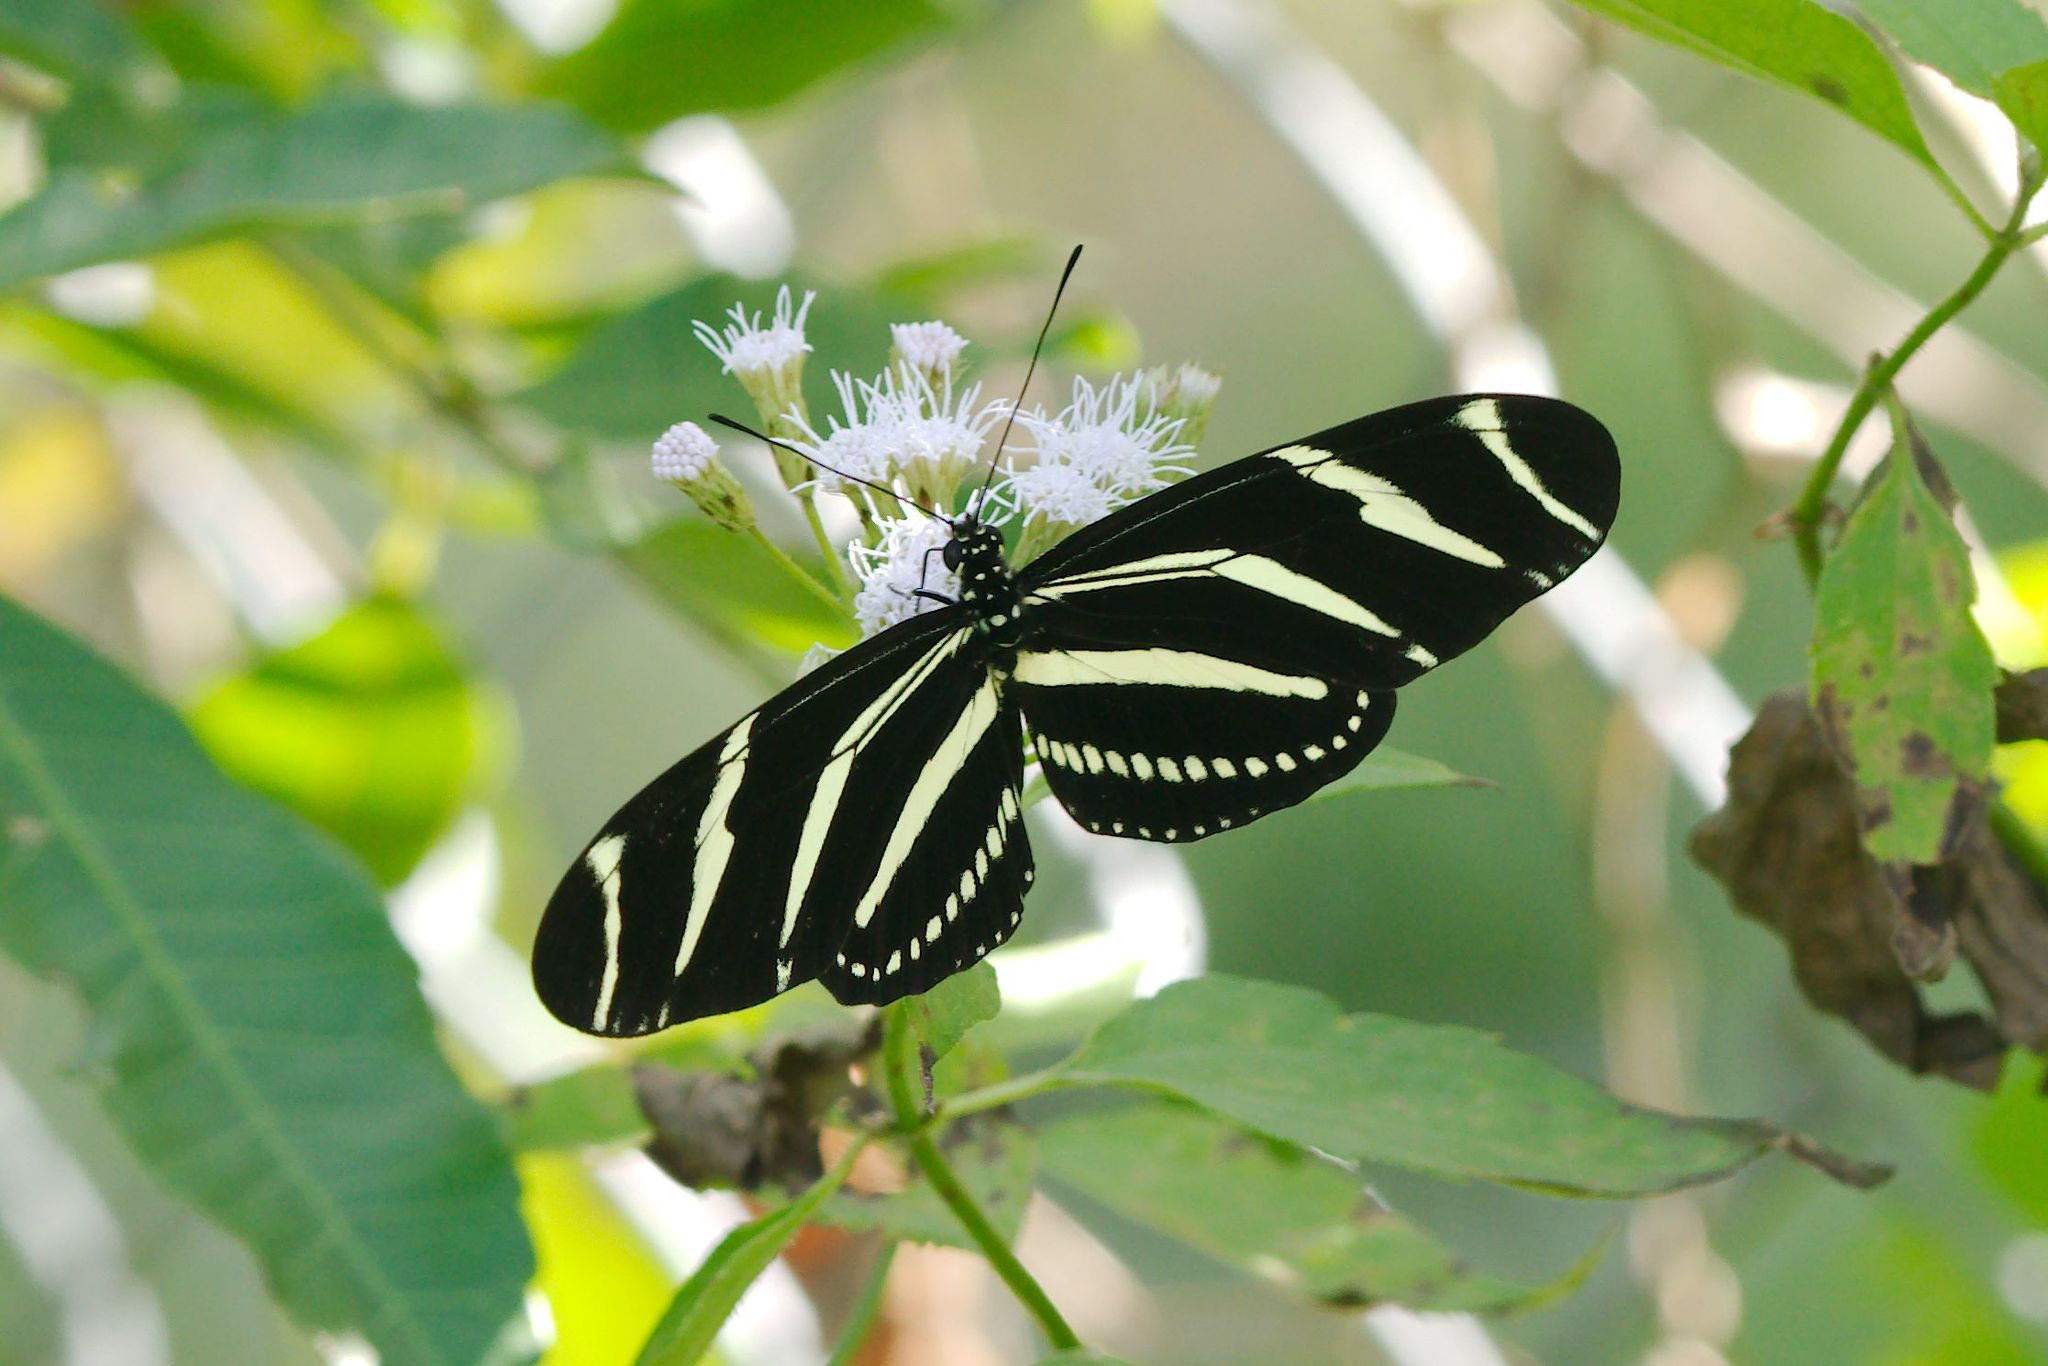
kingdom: Animalia
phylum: Arthropoda
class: Insecta
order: Lepidoptera
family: Nymphalidae
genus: Heliconius
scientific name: Heliconius charithonia
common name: Zebra long wing
